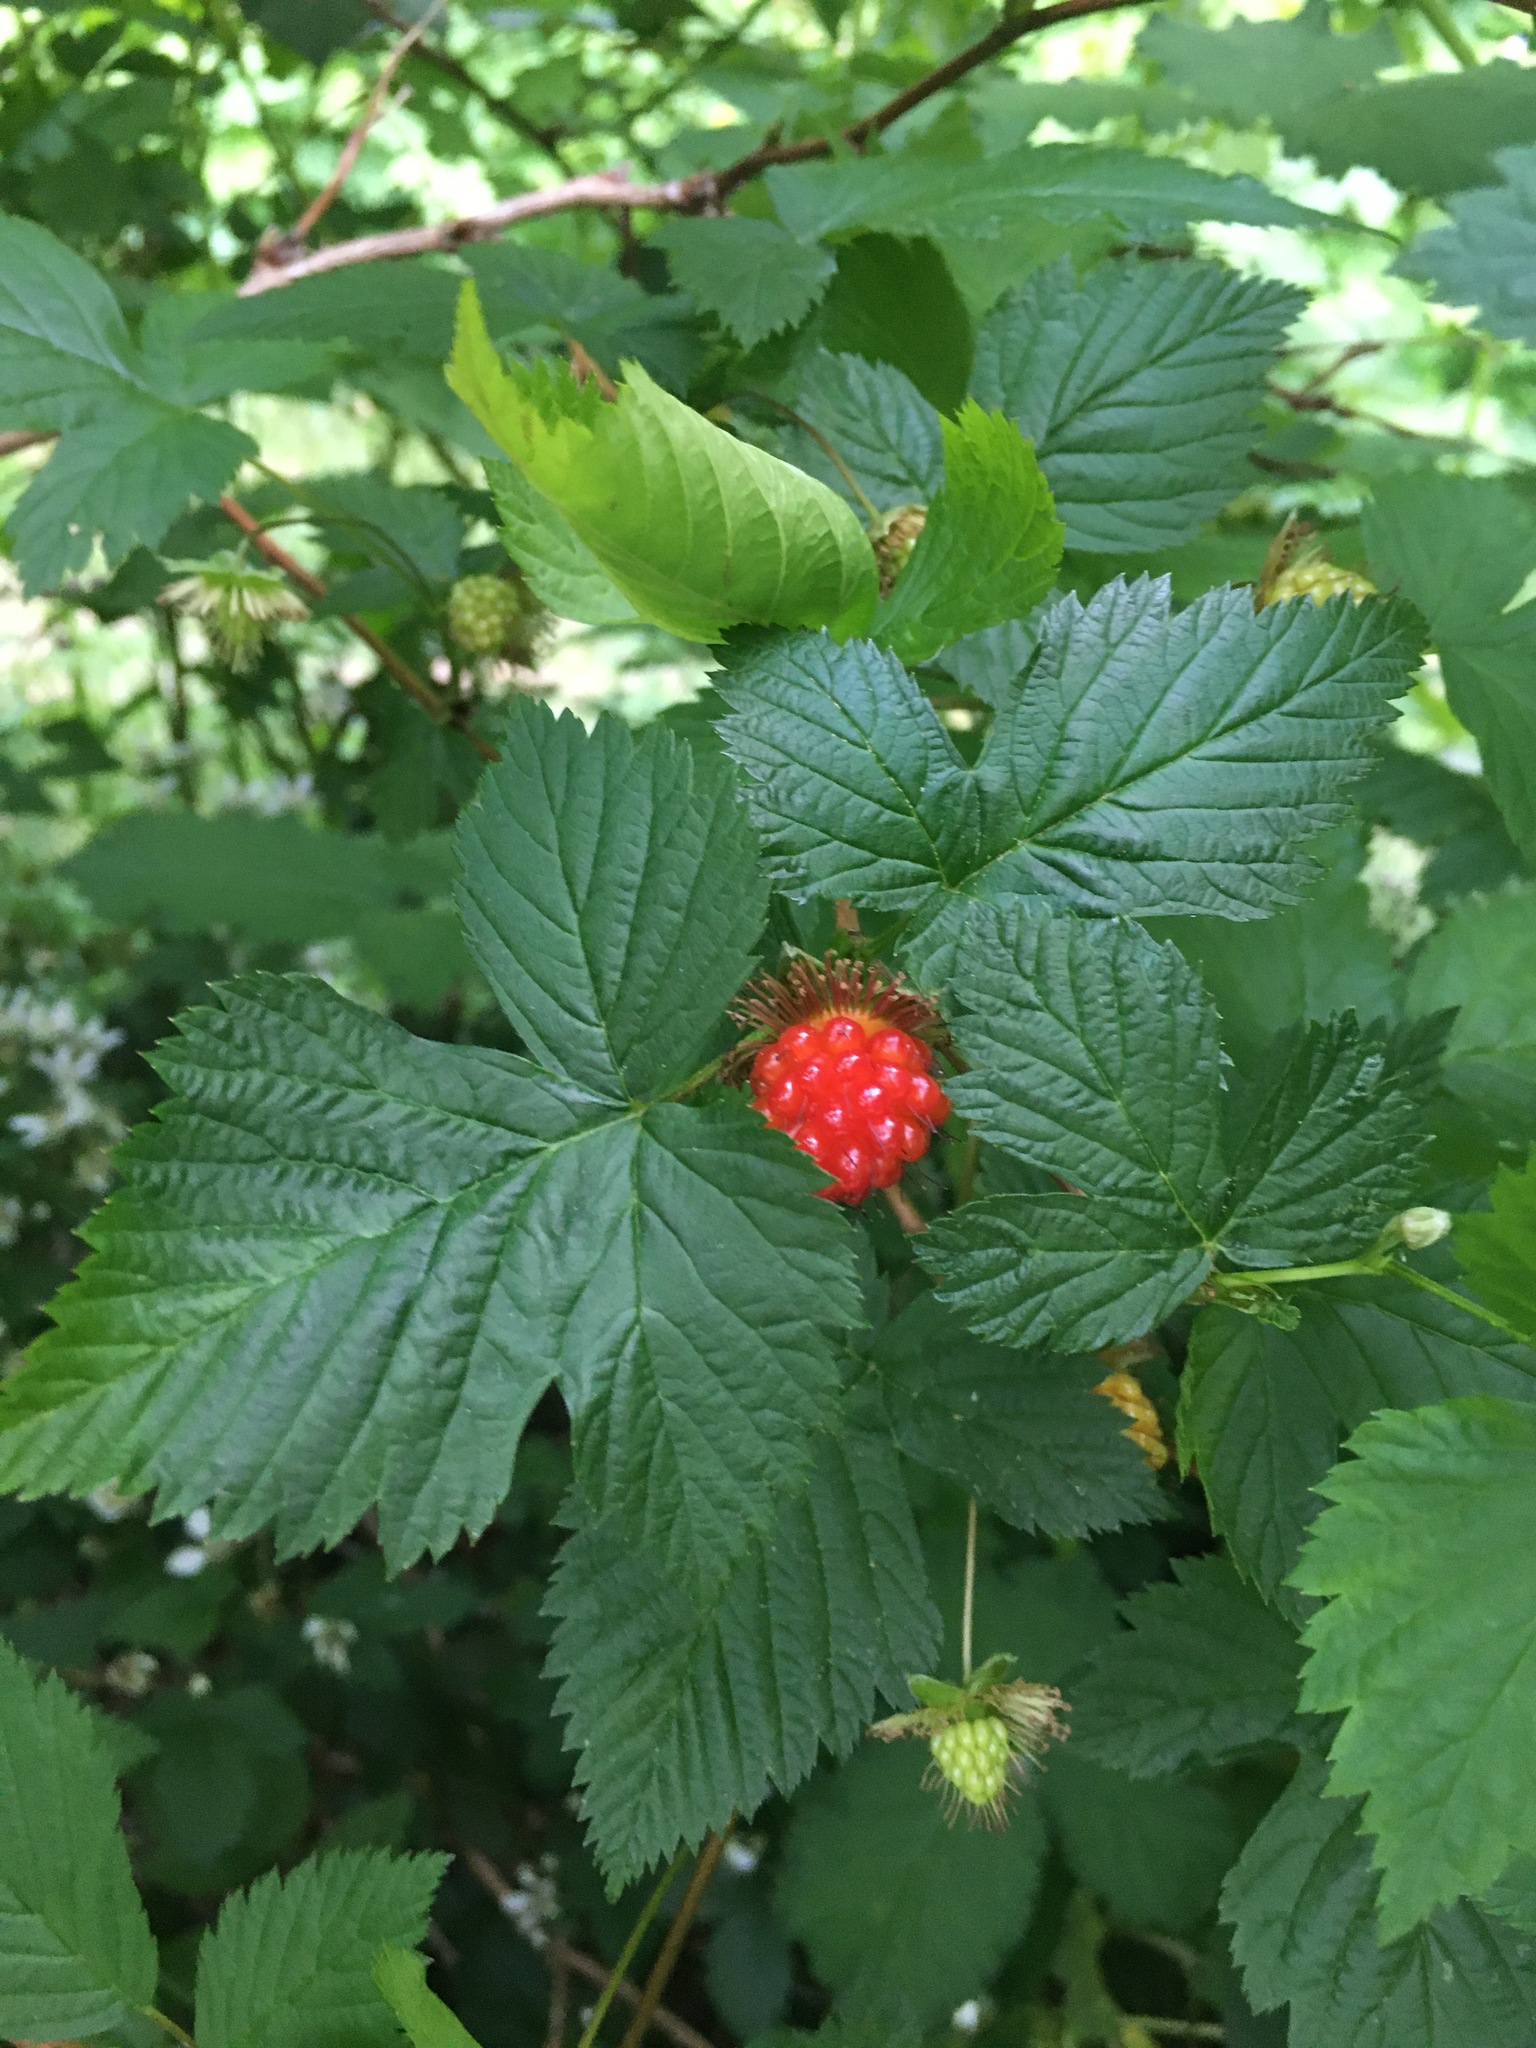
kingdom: Plantae
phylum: Tracheophyta
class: Magnoliopsida
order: Rosales
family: Rosaceae
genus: Rubus
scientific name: Rubus spectabilis
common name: Salmonberry
